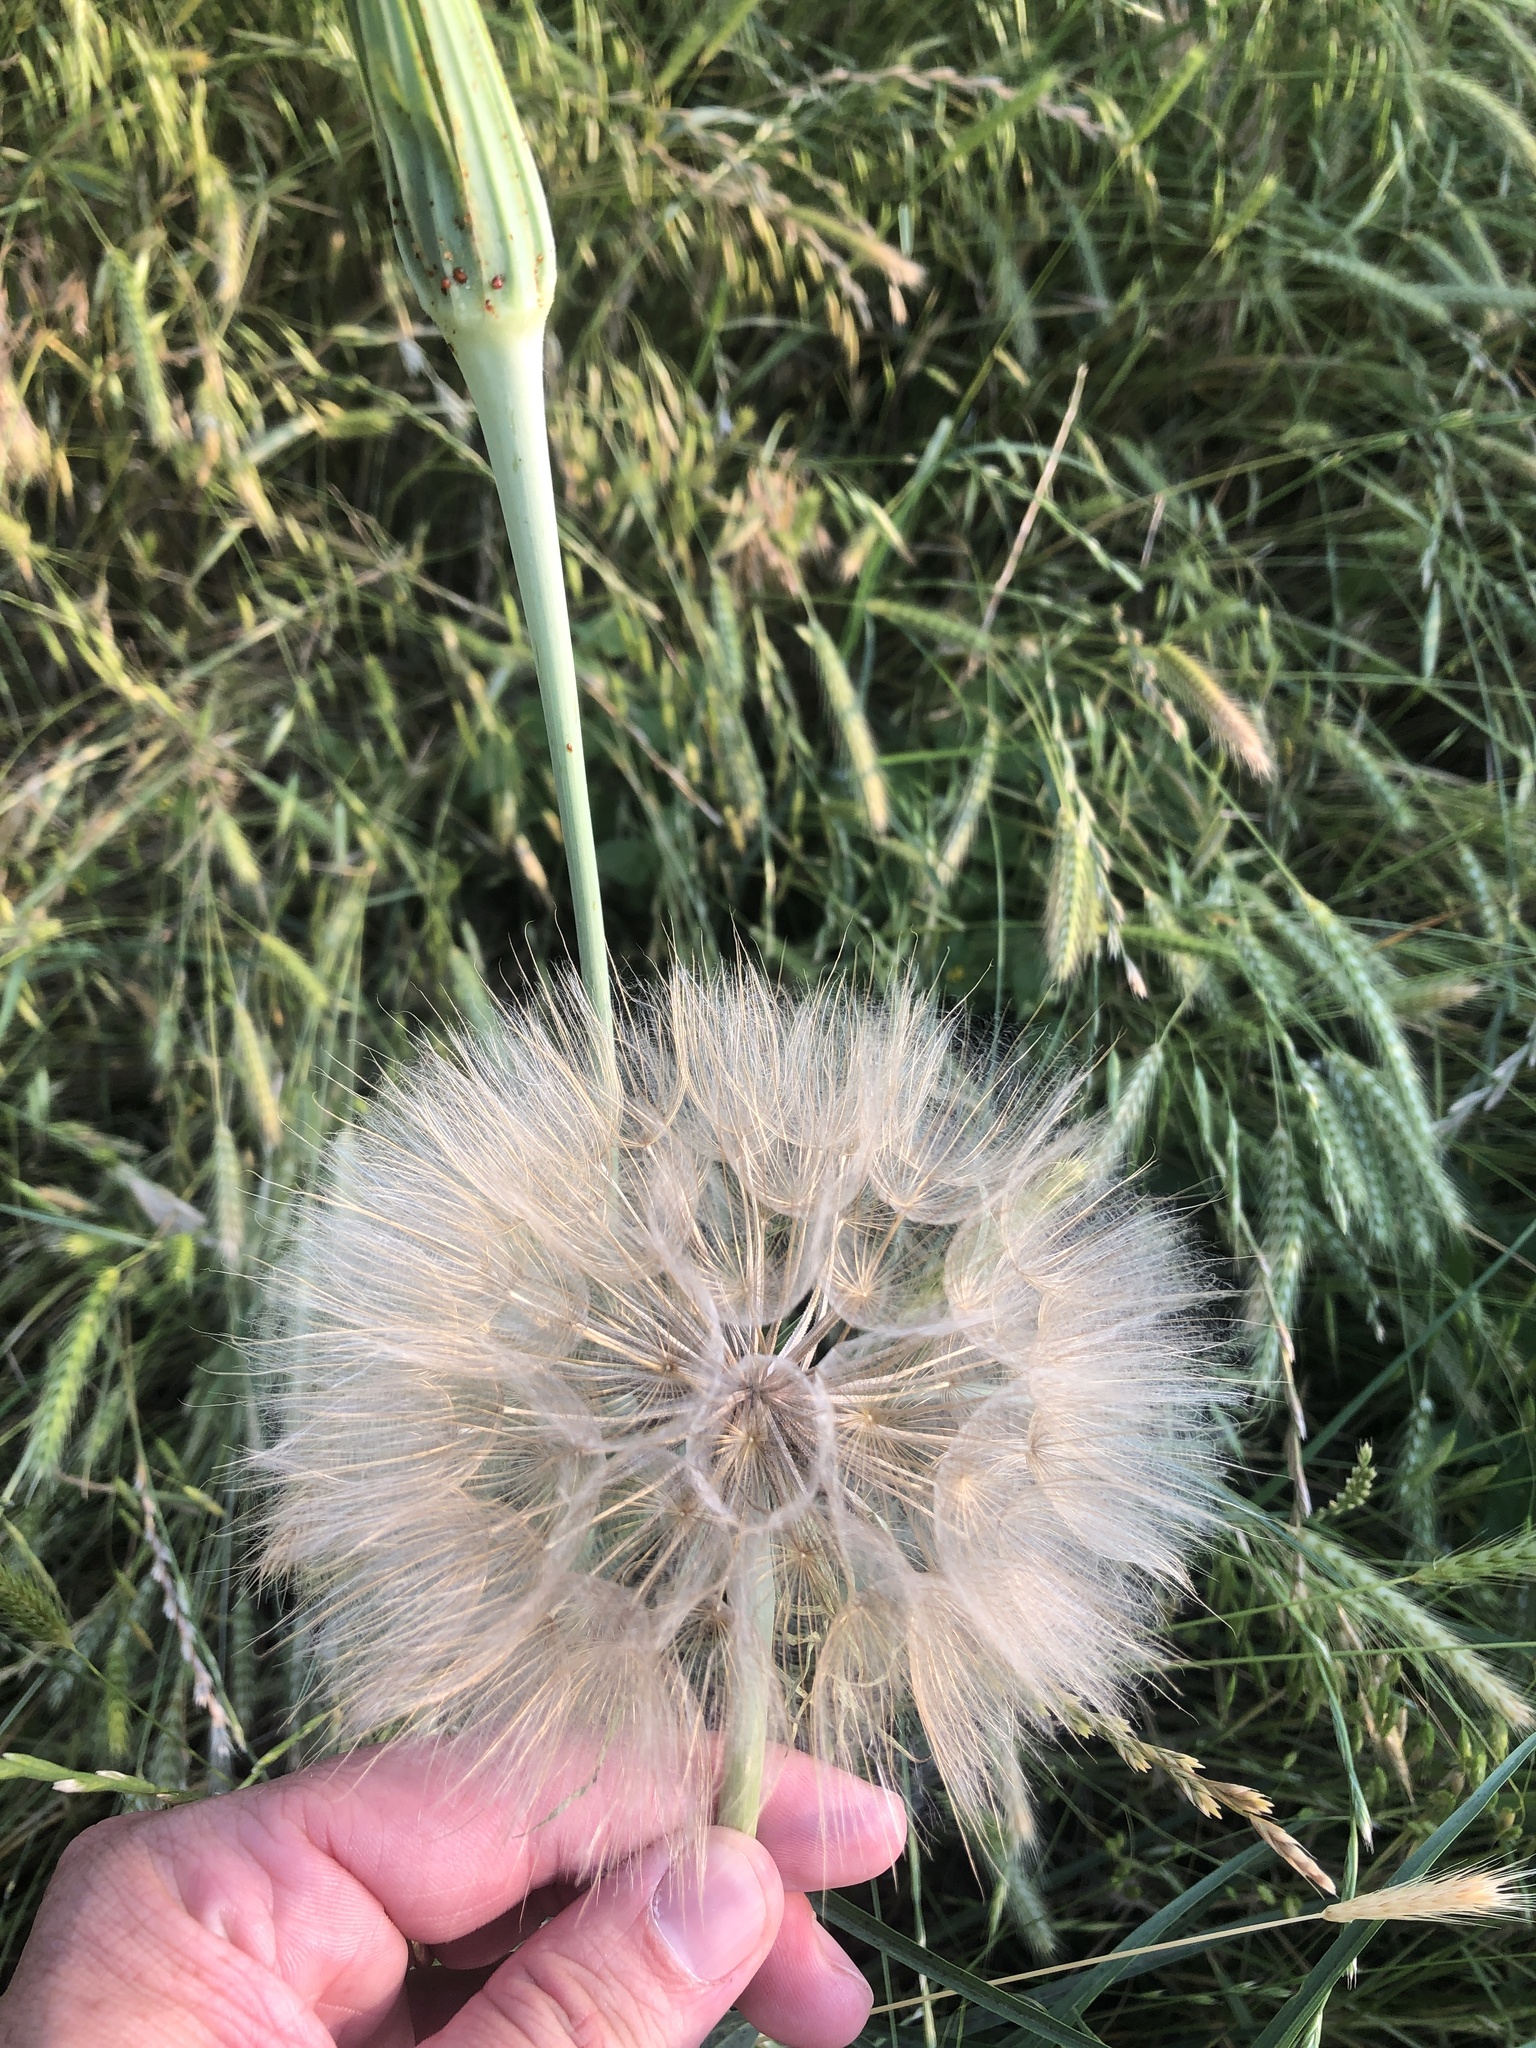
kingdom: Plantae
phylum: Tracheophyta
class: Magnoliopsida
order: Asterales
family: Asteraceae
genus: Tragopogon
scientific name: Tragopogon dubius
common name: Yellow salsify
